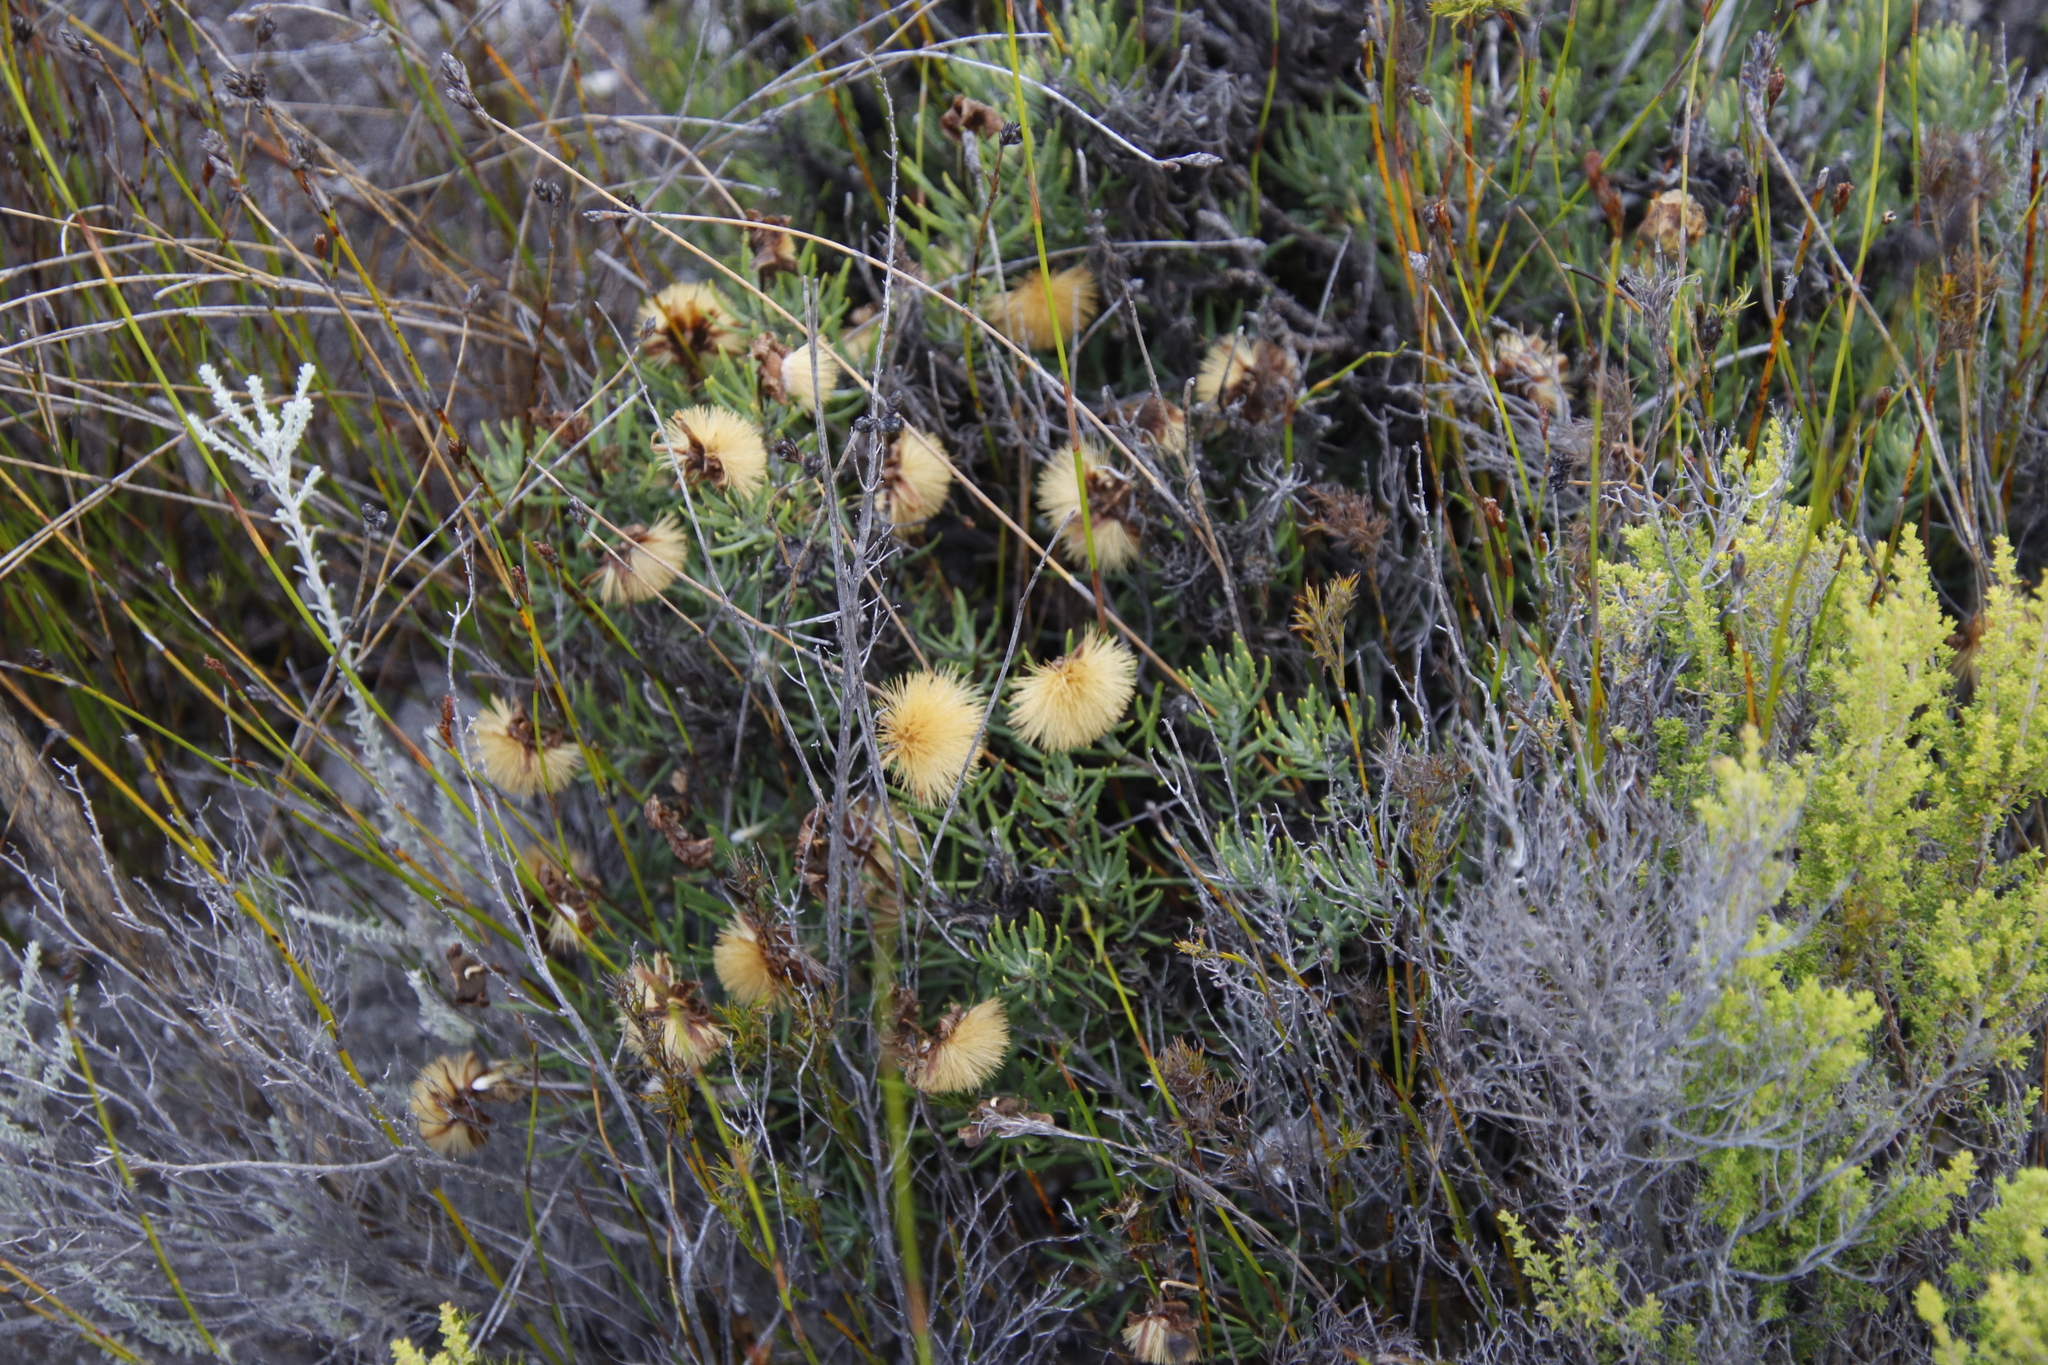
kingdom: Plantae
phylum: Tracheophyta
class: Magnoliopsida
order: Asterales
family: Asteraceae
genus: Heterolepis
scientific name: Heterolepis aliena
